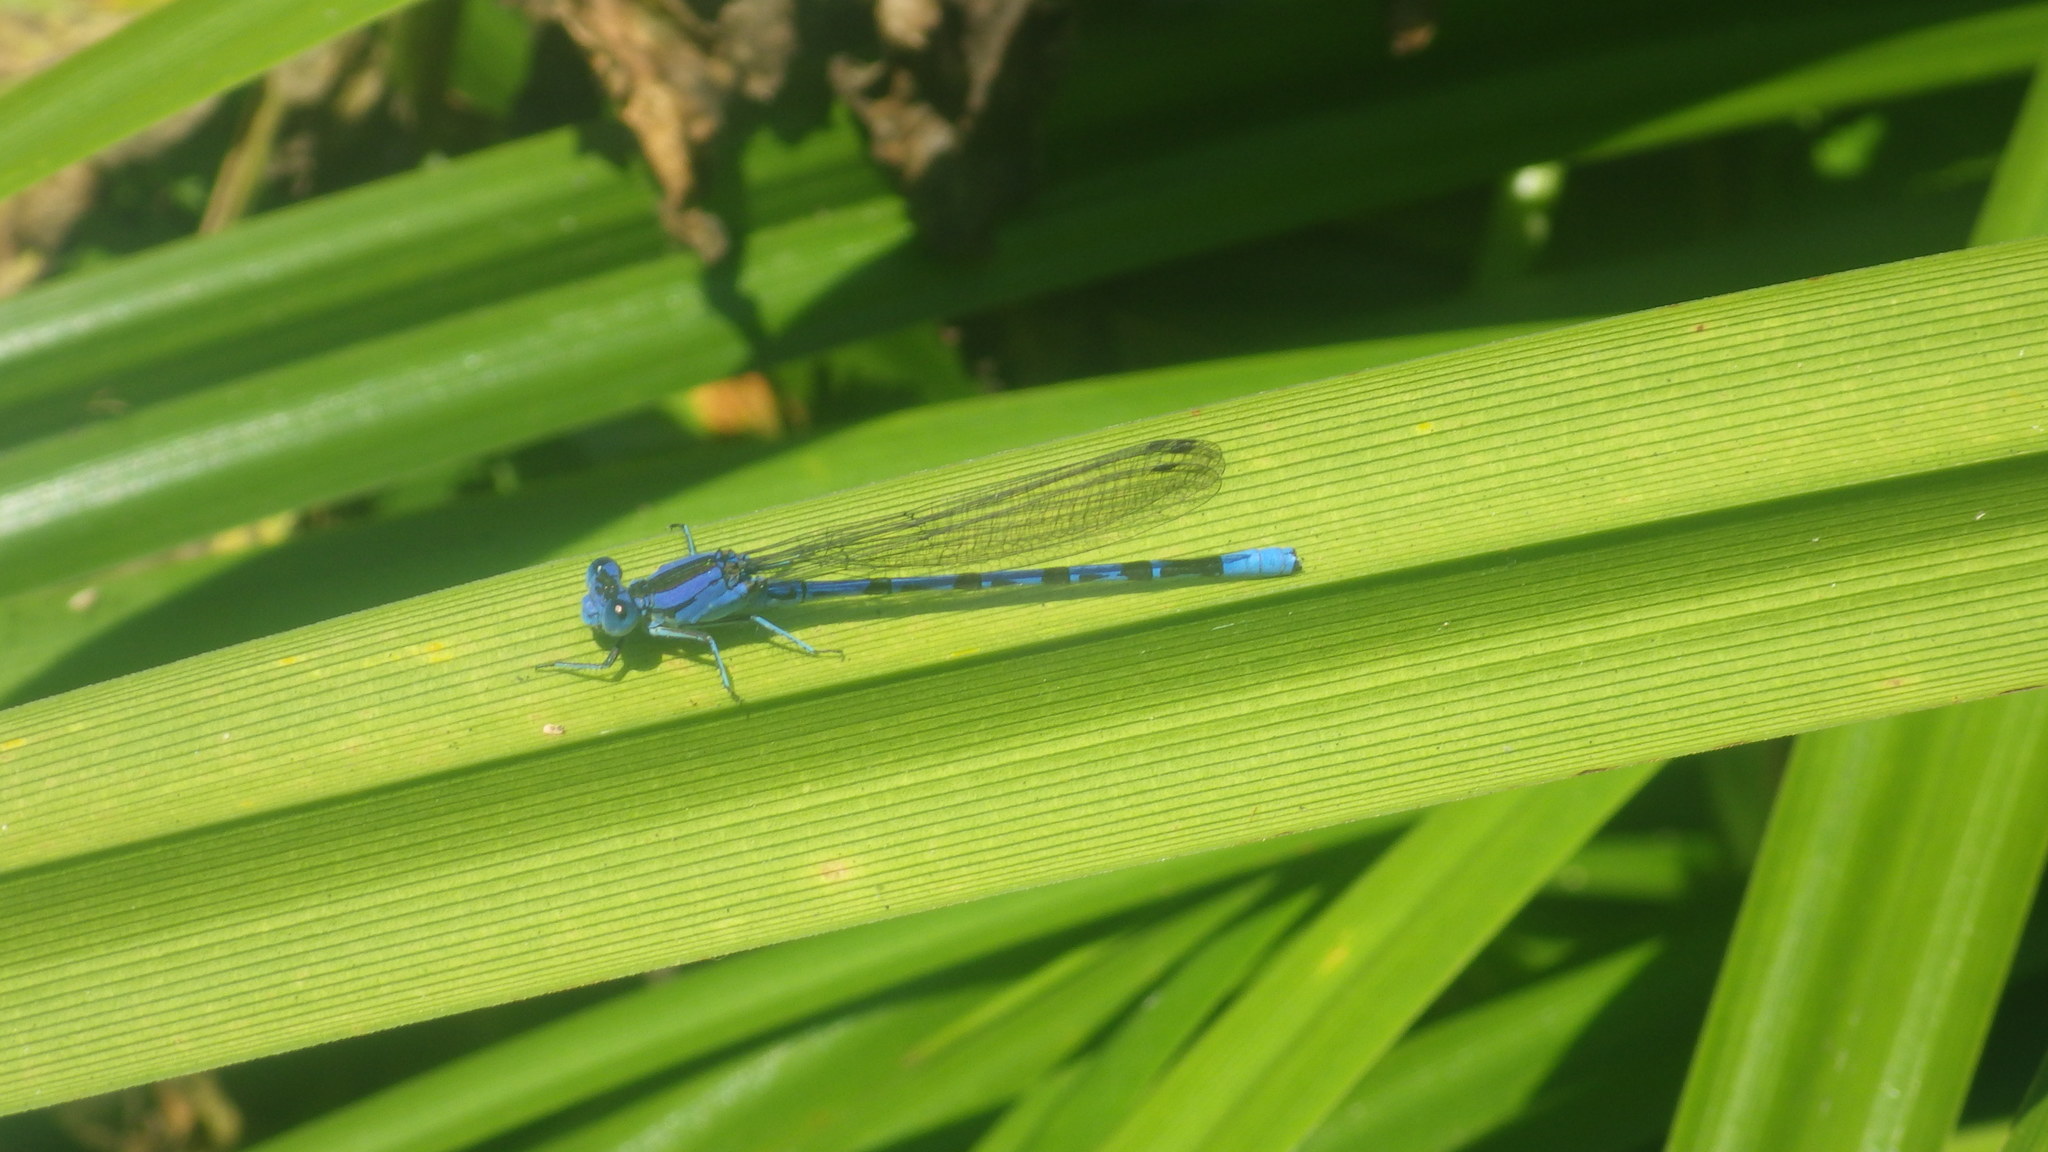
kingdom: Animalia
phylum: Arthropoda
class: Insecta
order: Odonata
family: Coenagrionidae
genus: Argia
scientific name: Argia vivida
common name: Vivid dancer
